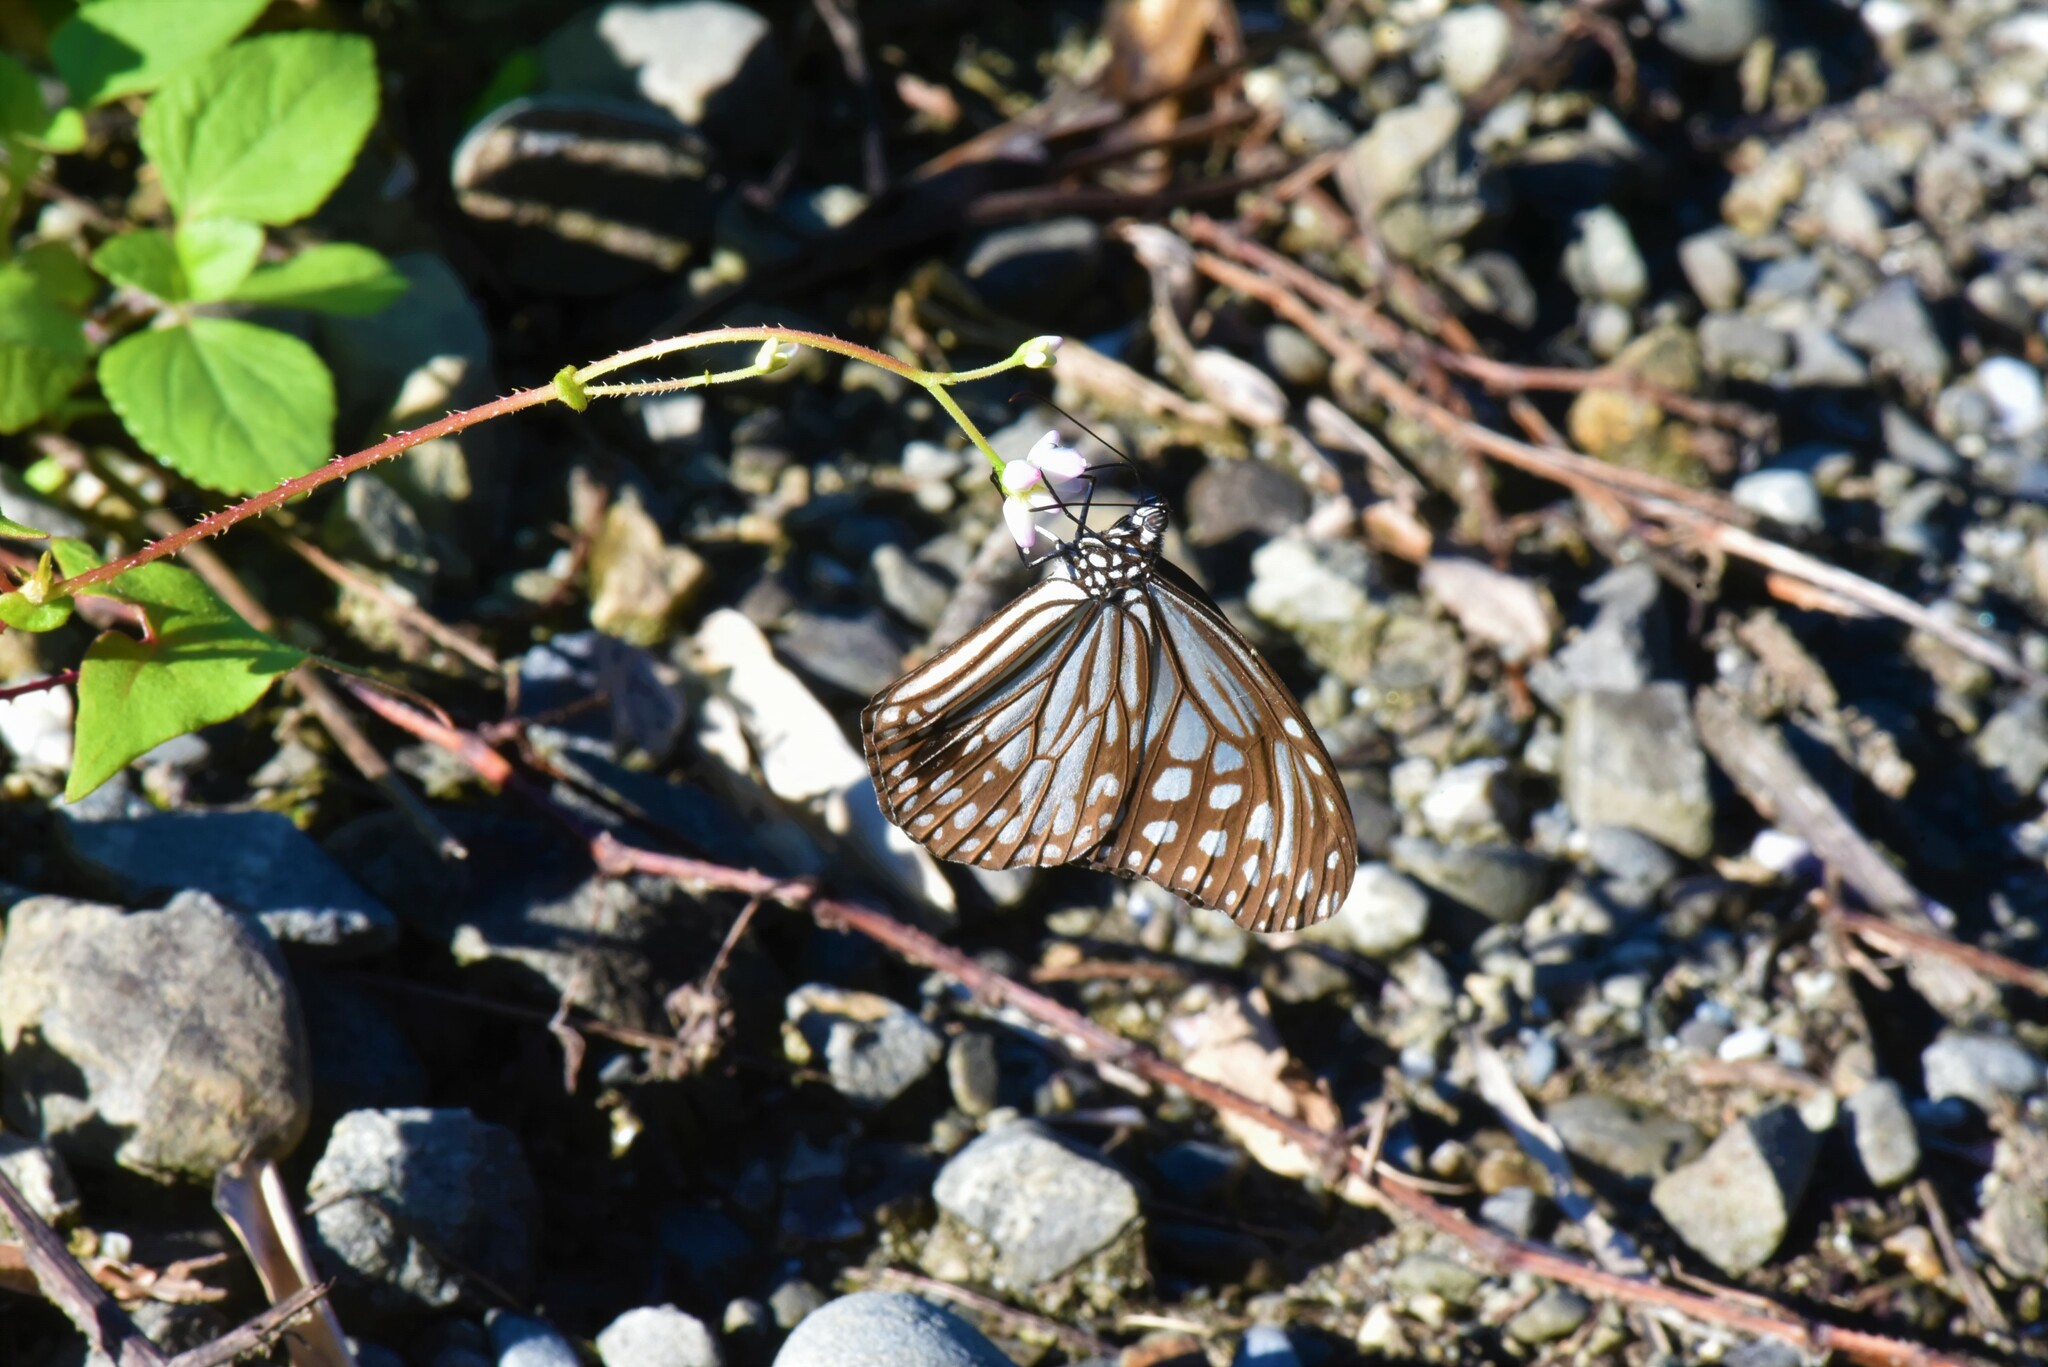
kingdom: Animalia
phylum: Arthropoda
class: Insecta
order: Lepidoptera
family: Nymphalidae
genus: Parantica
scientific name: Parantica aglea
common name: Glassy tiger
